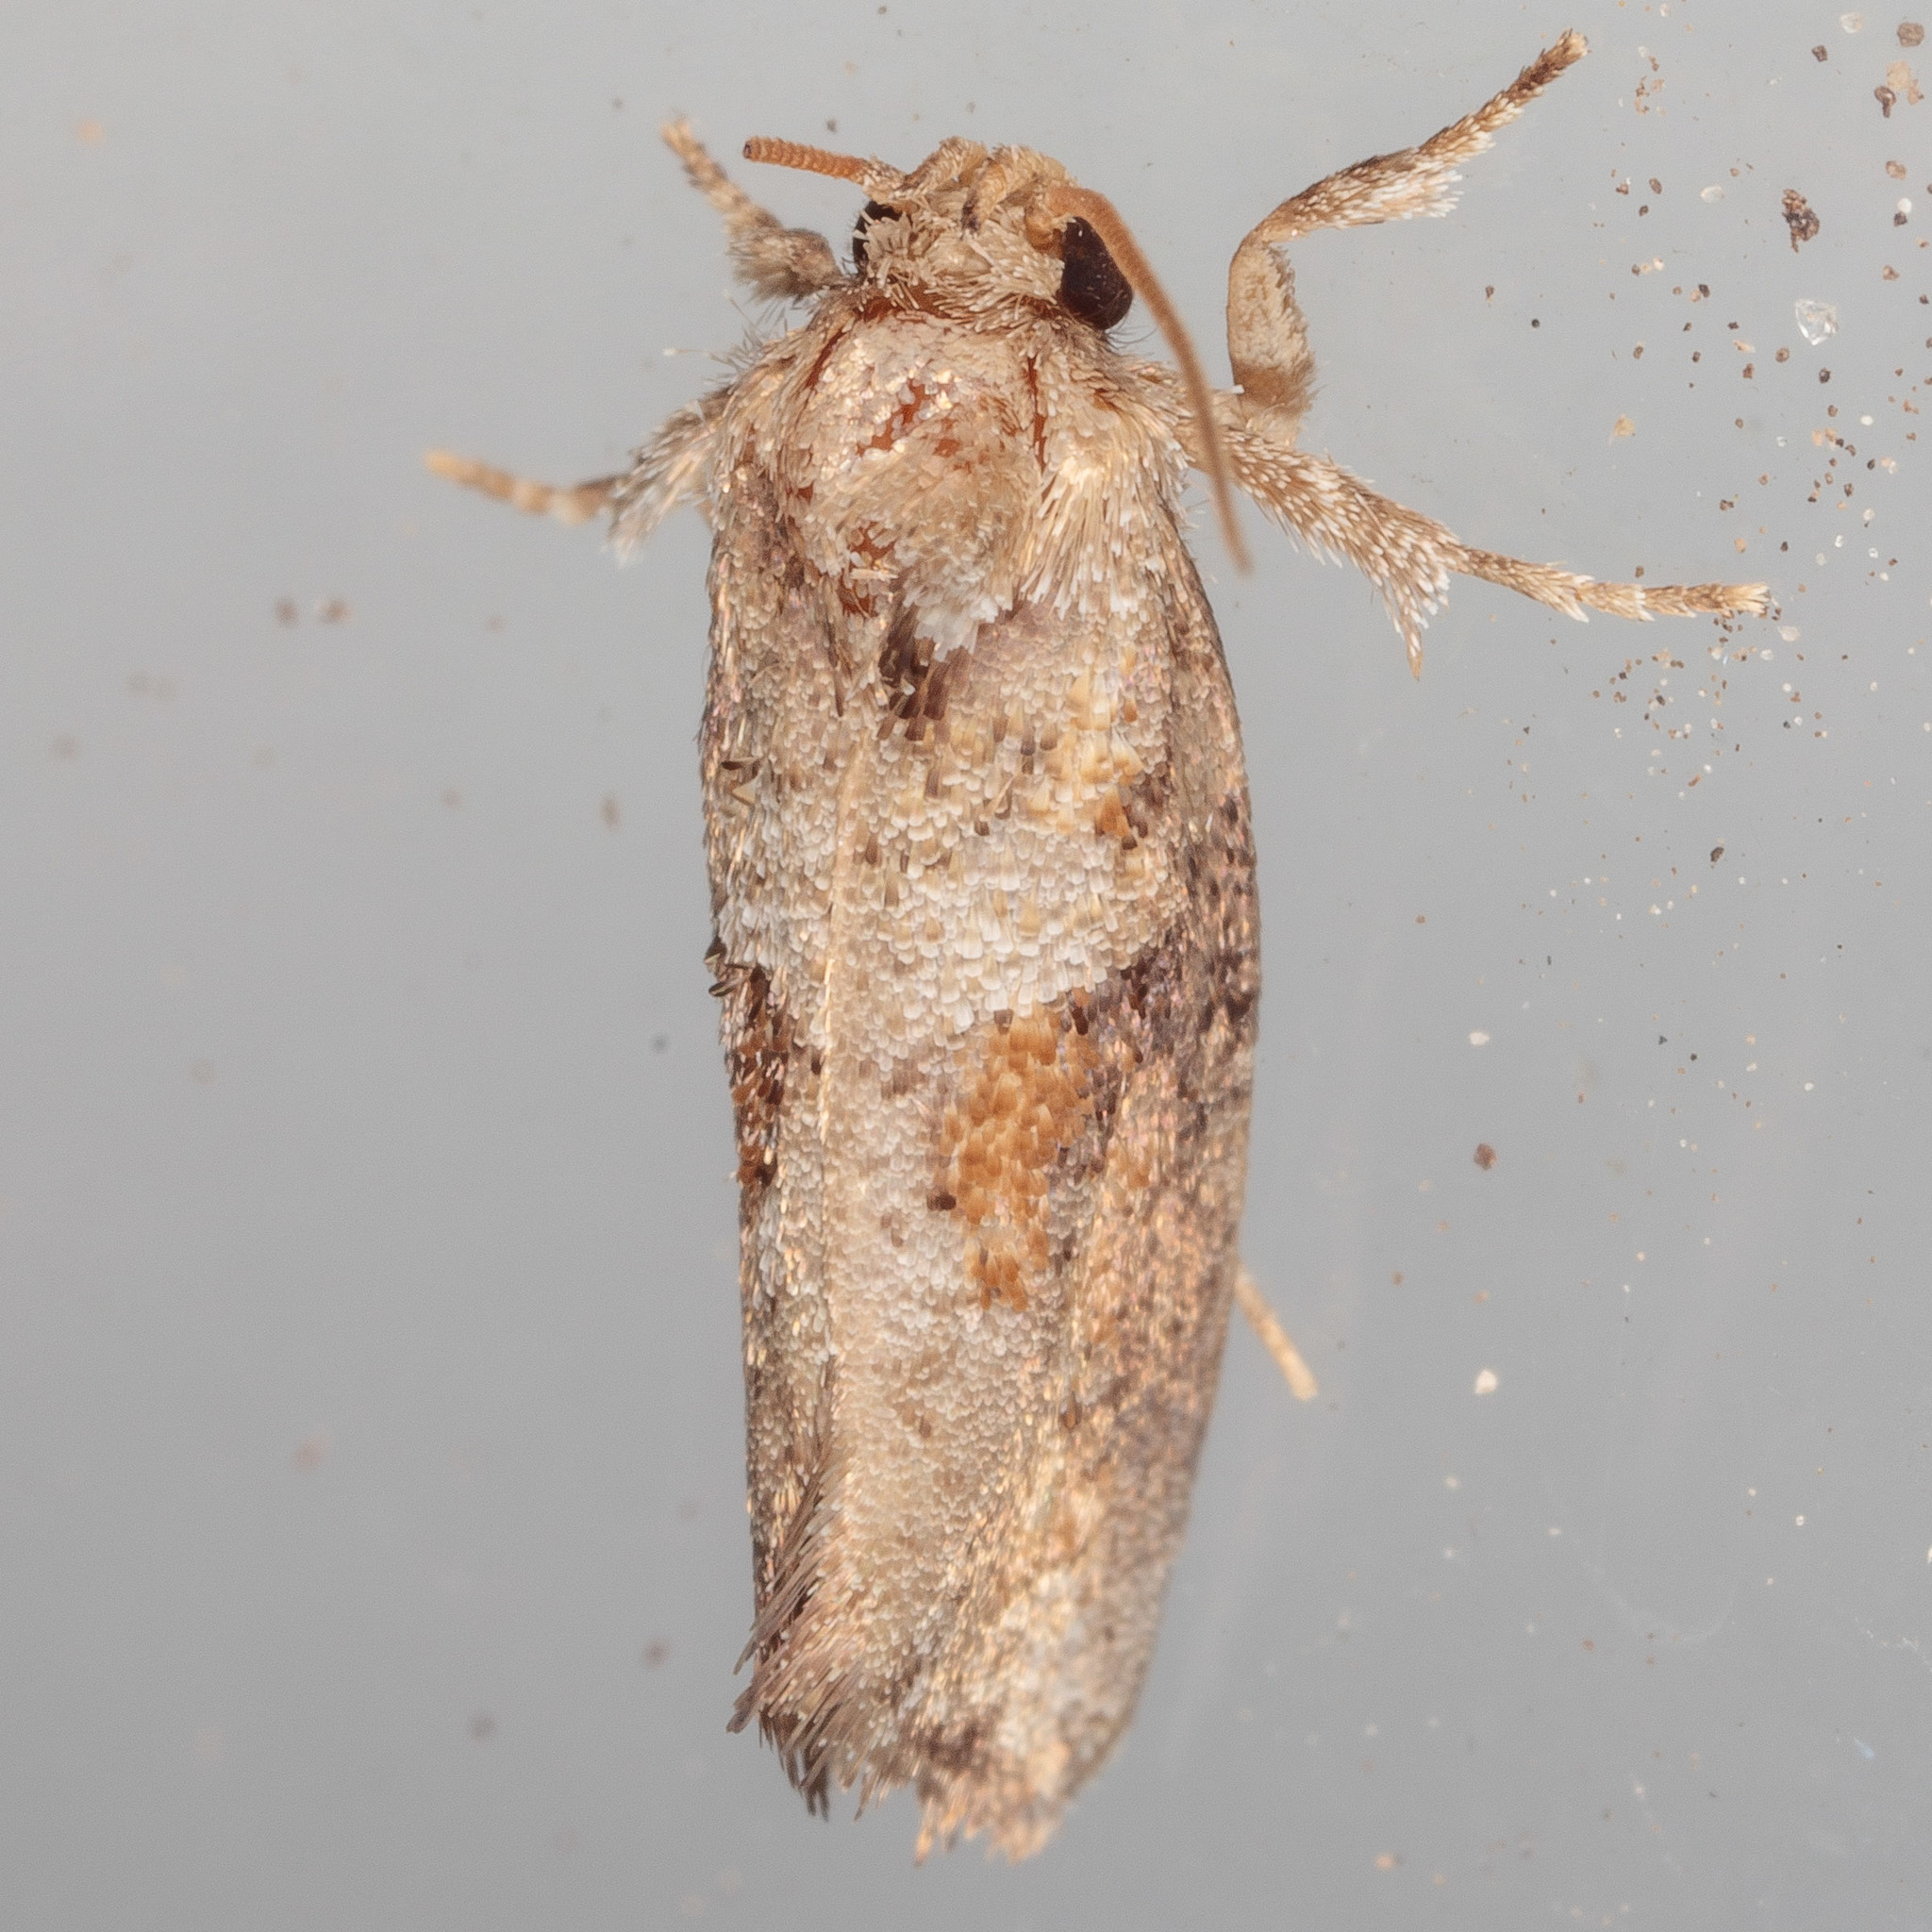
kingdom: Animalia
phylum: Arthropoda
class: Insecta
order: Lepidoptera
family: Tineidae
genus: Acrolophus
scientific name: Acrolophus piger
